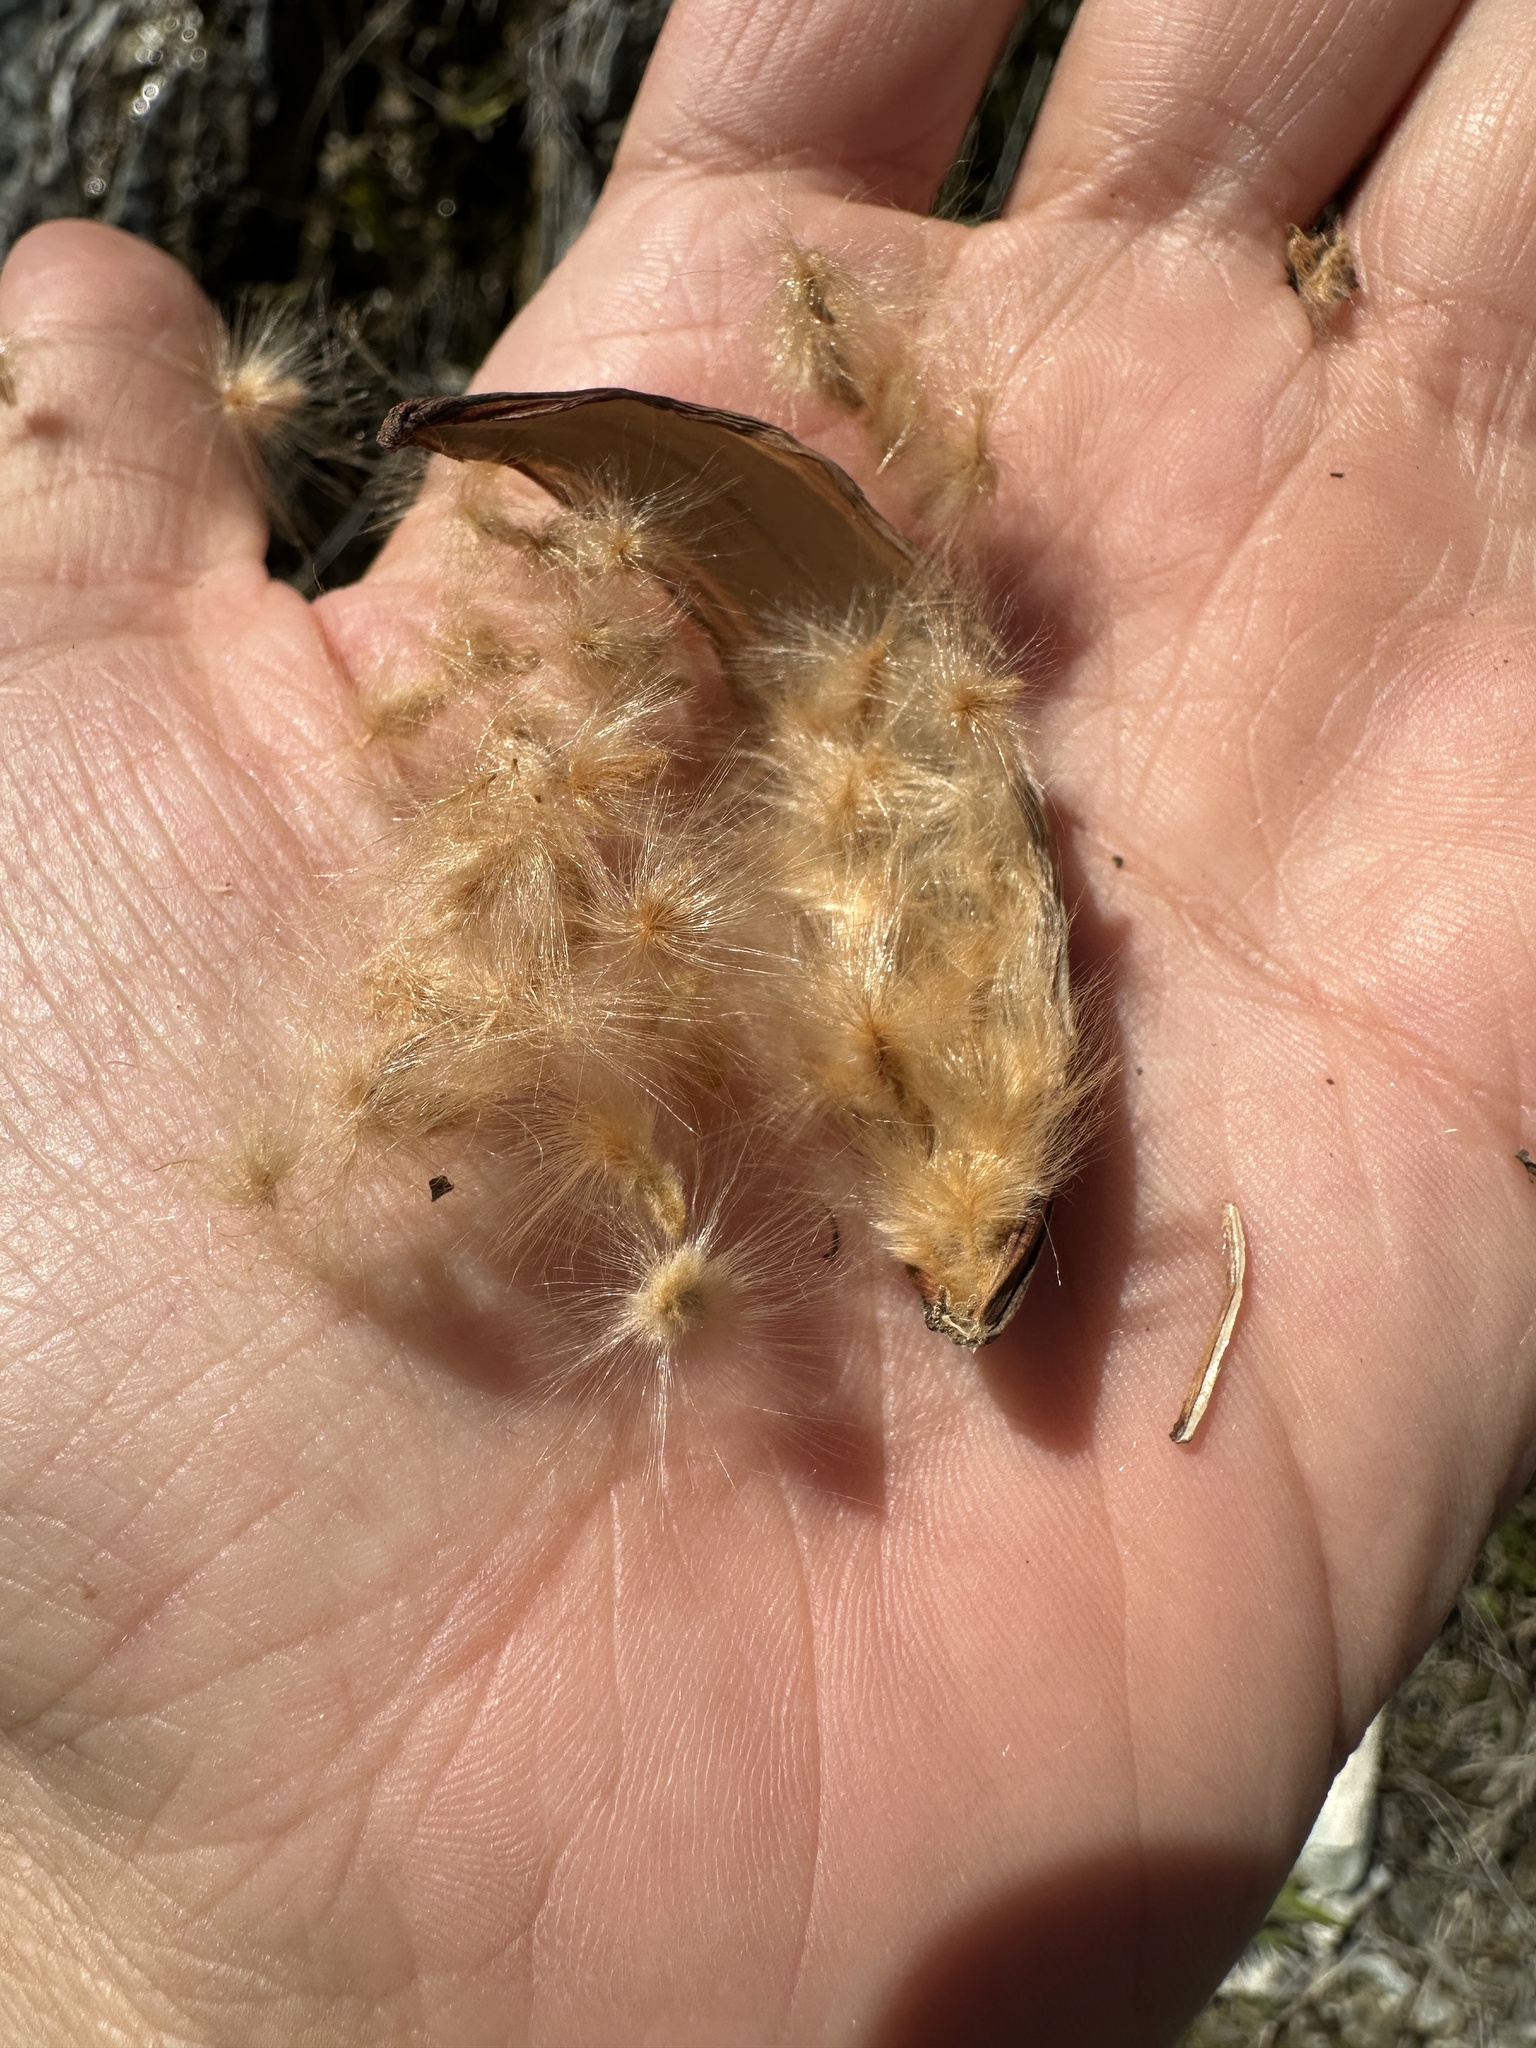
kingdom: Plantae
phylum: Tracheophyta
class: Magnoliopsida
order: Gentianales
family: Apocynaceae
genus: Nerium
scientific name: Nerium oleander
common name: Oleander
